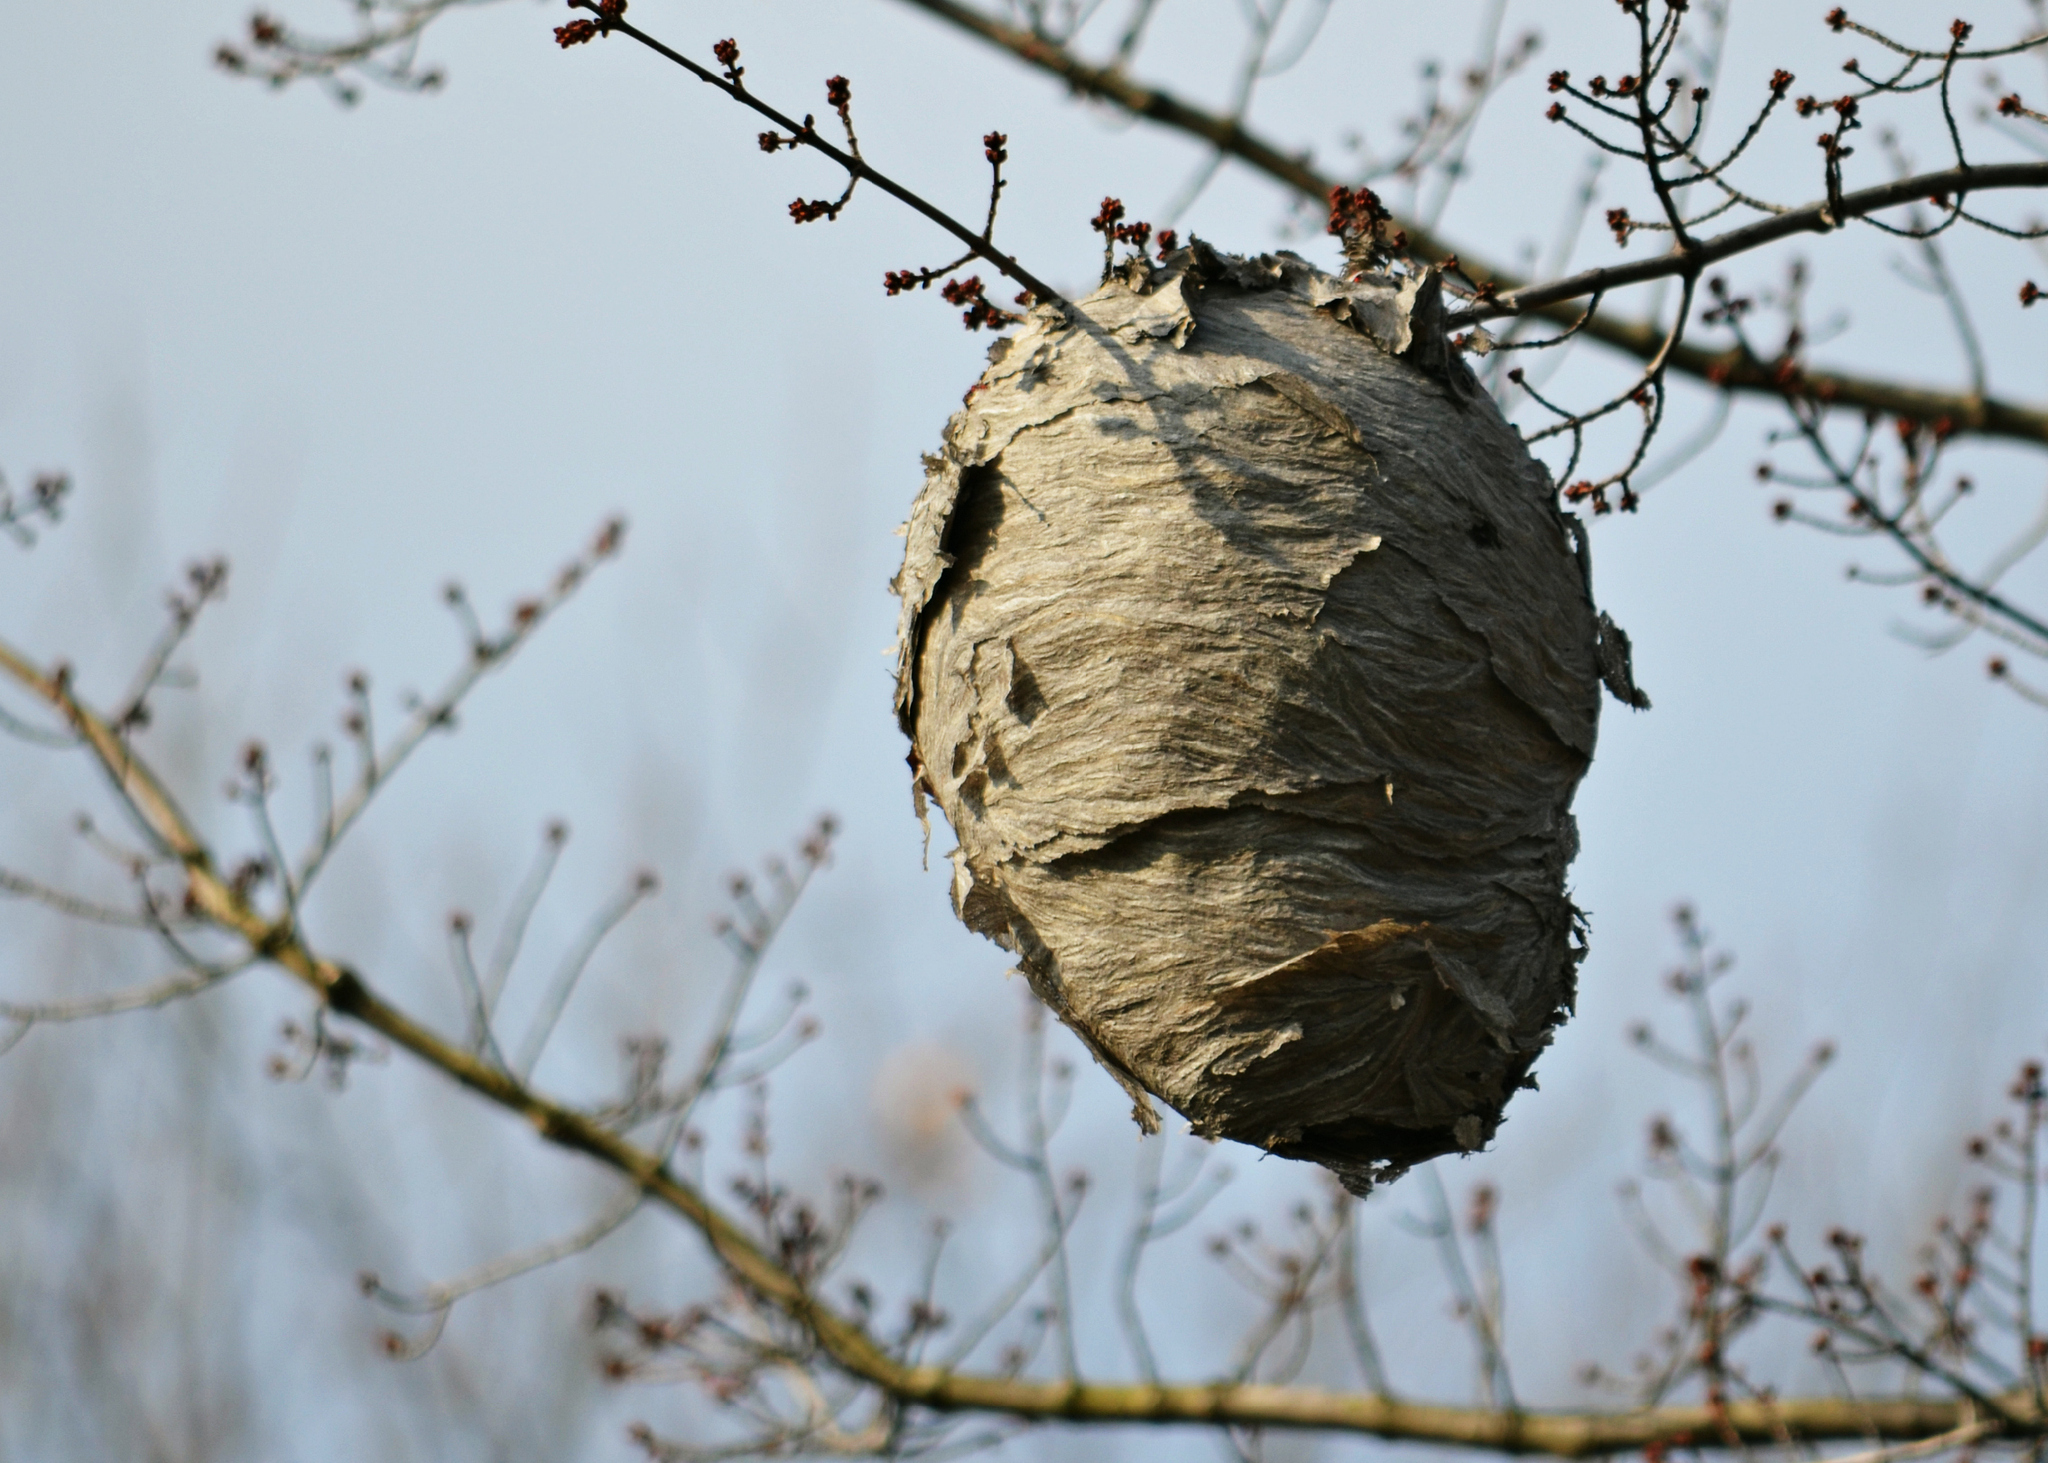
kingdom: Animalia
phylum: Arthropoda
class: Insecta
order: Hymenoptera
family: Vespidae
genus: Dolichovespula
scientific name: Dolichovespula
